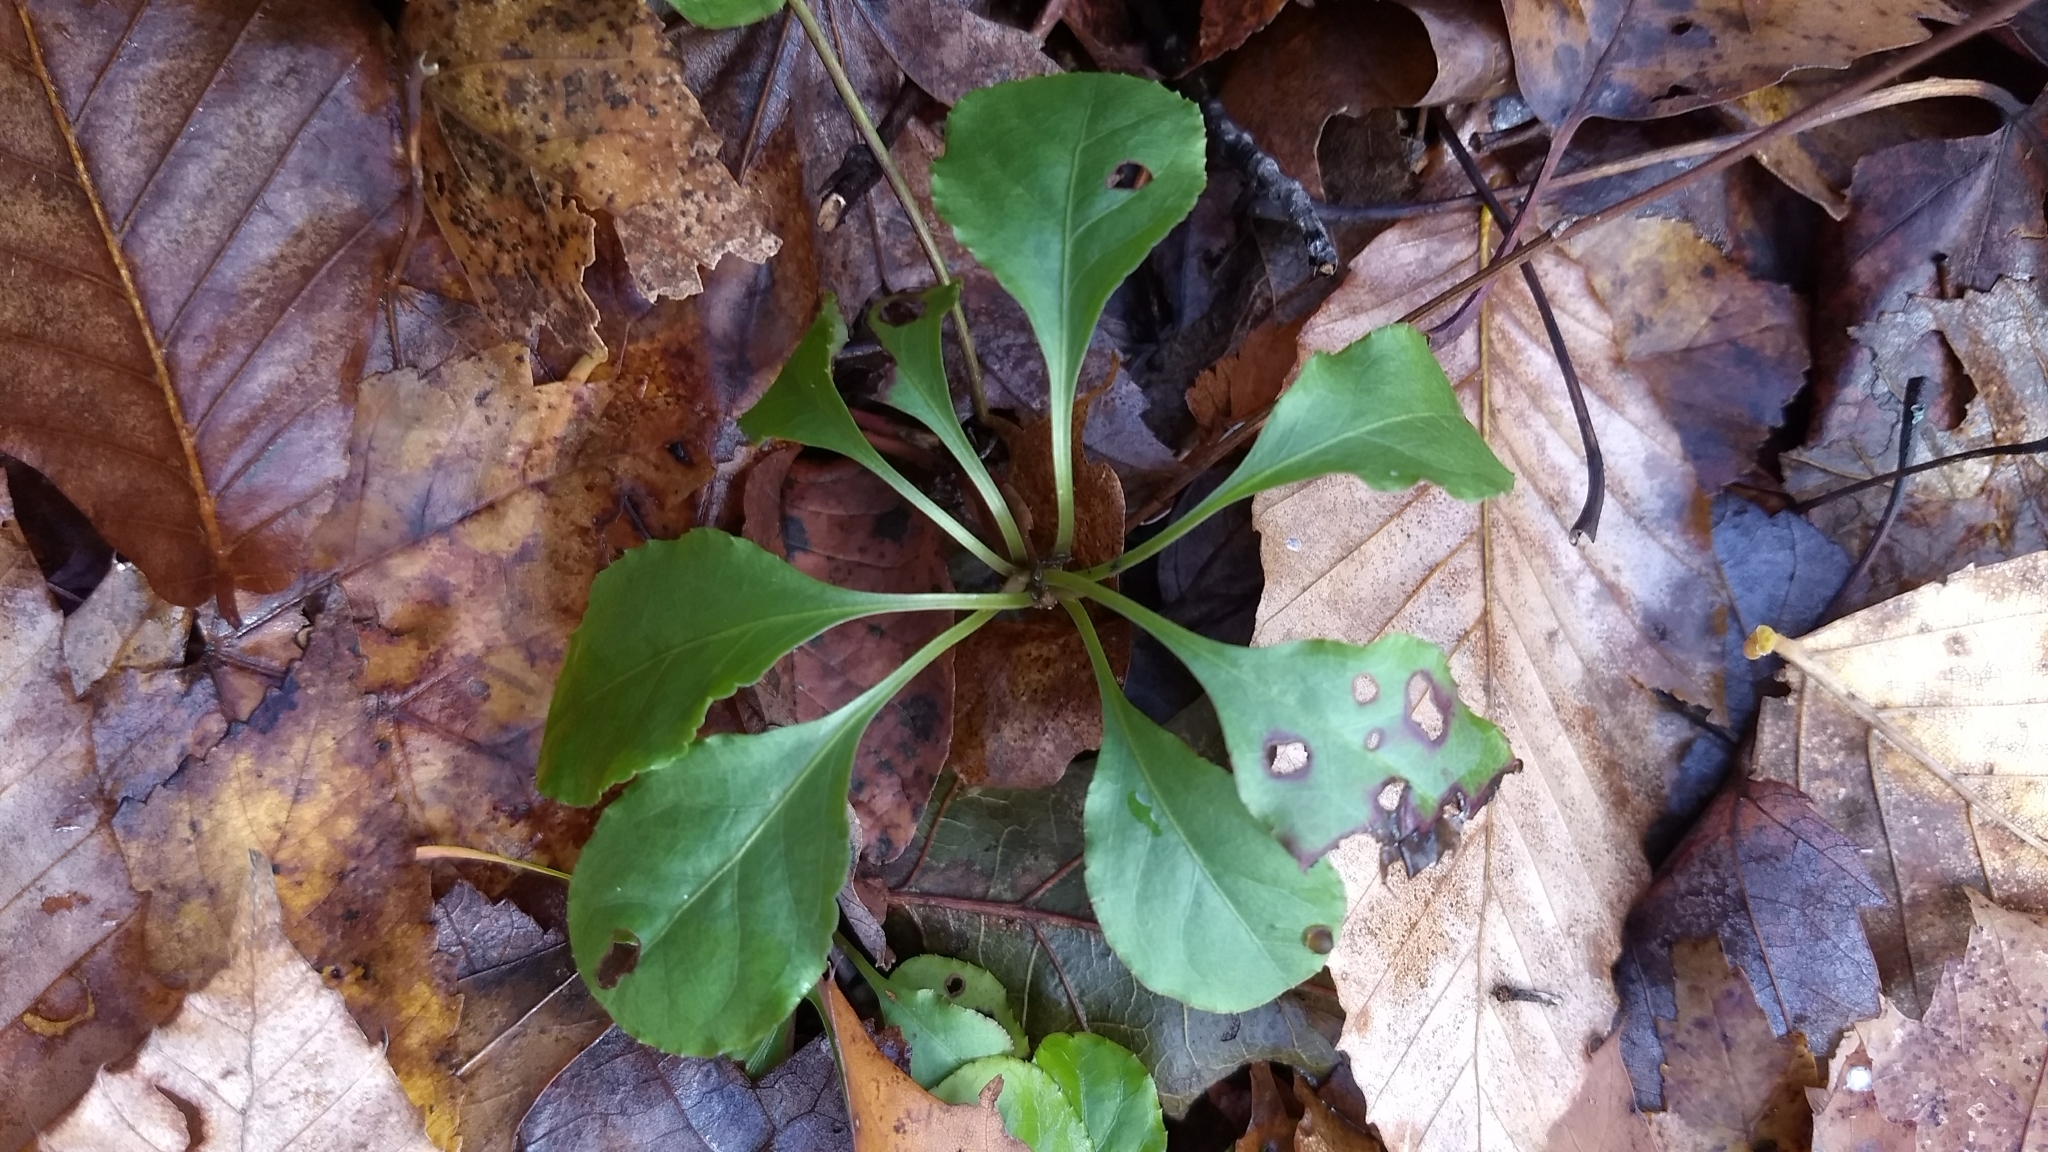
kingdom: Plantae
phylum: Tracheophyta
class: Magnoliopsida
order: Ericales
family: Ericaceae
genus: Pyrola
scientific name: Pyrola elliptica
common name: Shinleaf
